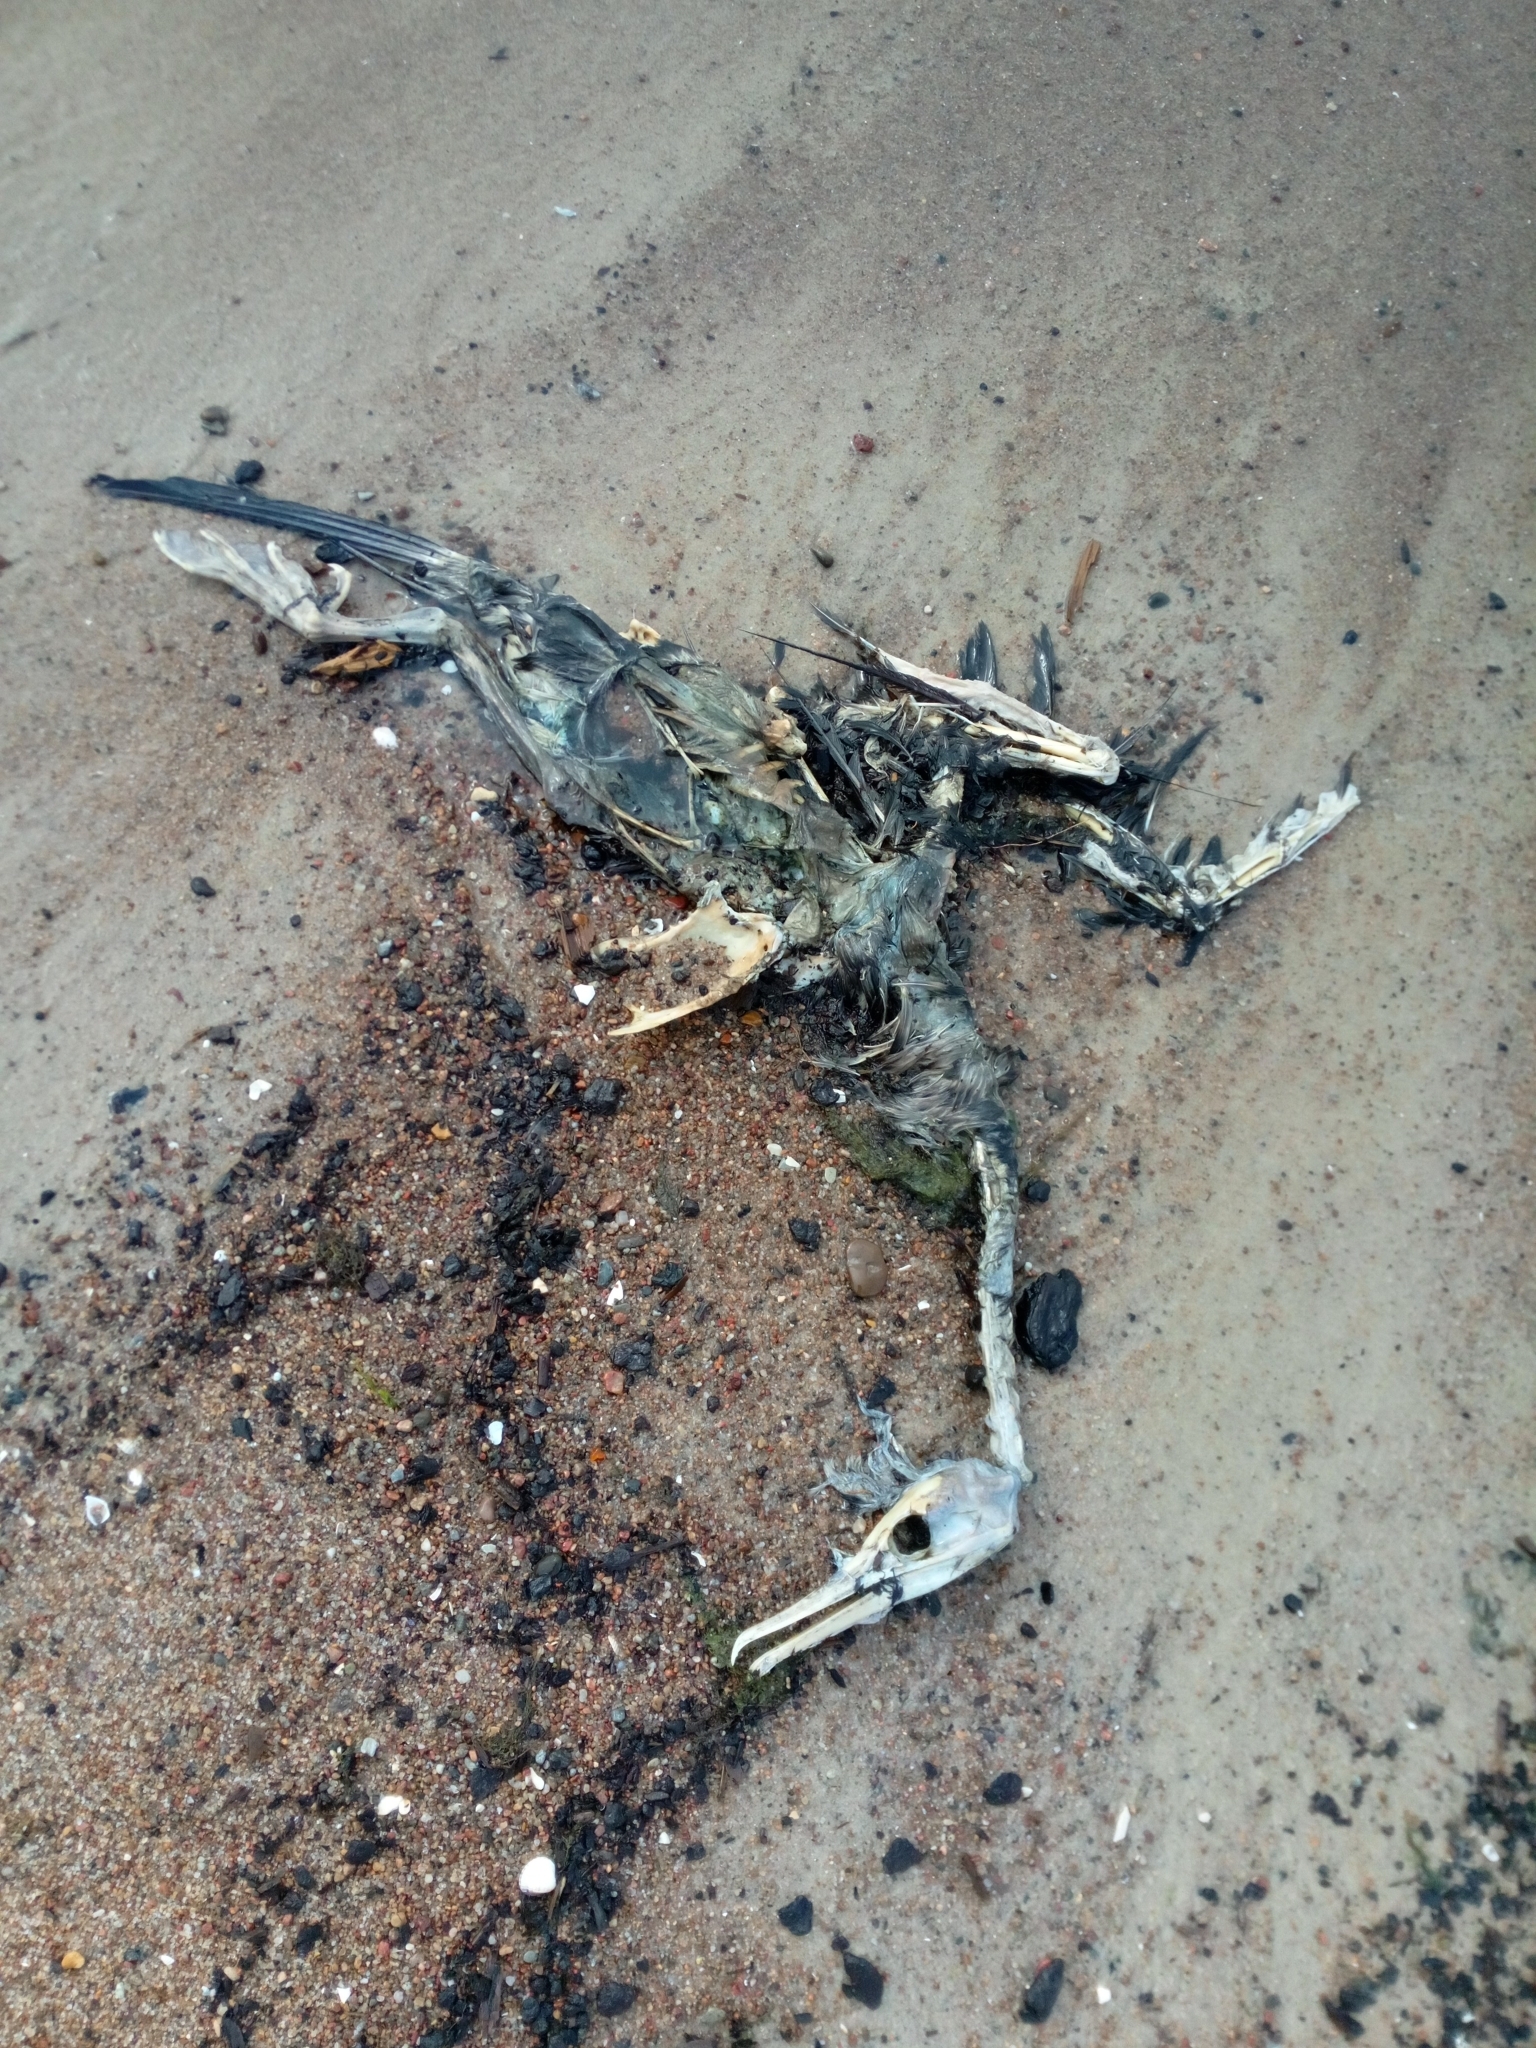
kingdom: Animalia
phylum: Chordata
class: Aves
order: Suliformes
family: Phalacrocoracidae
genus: Phalacrocorax
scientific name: Phalacrocorax carbo
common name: Great cormorant
